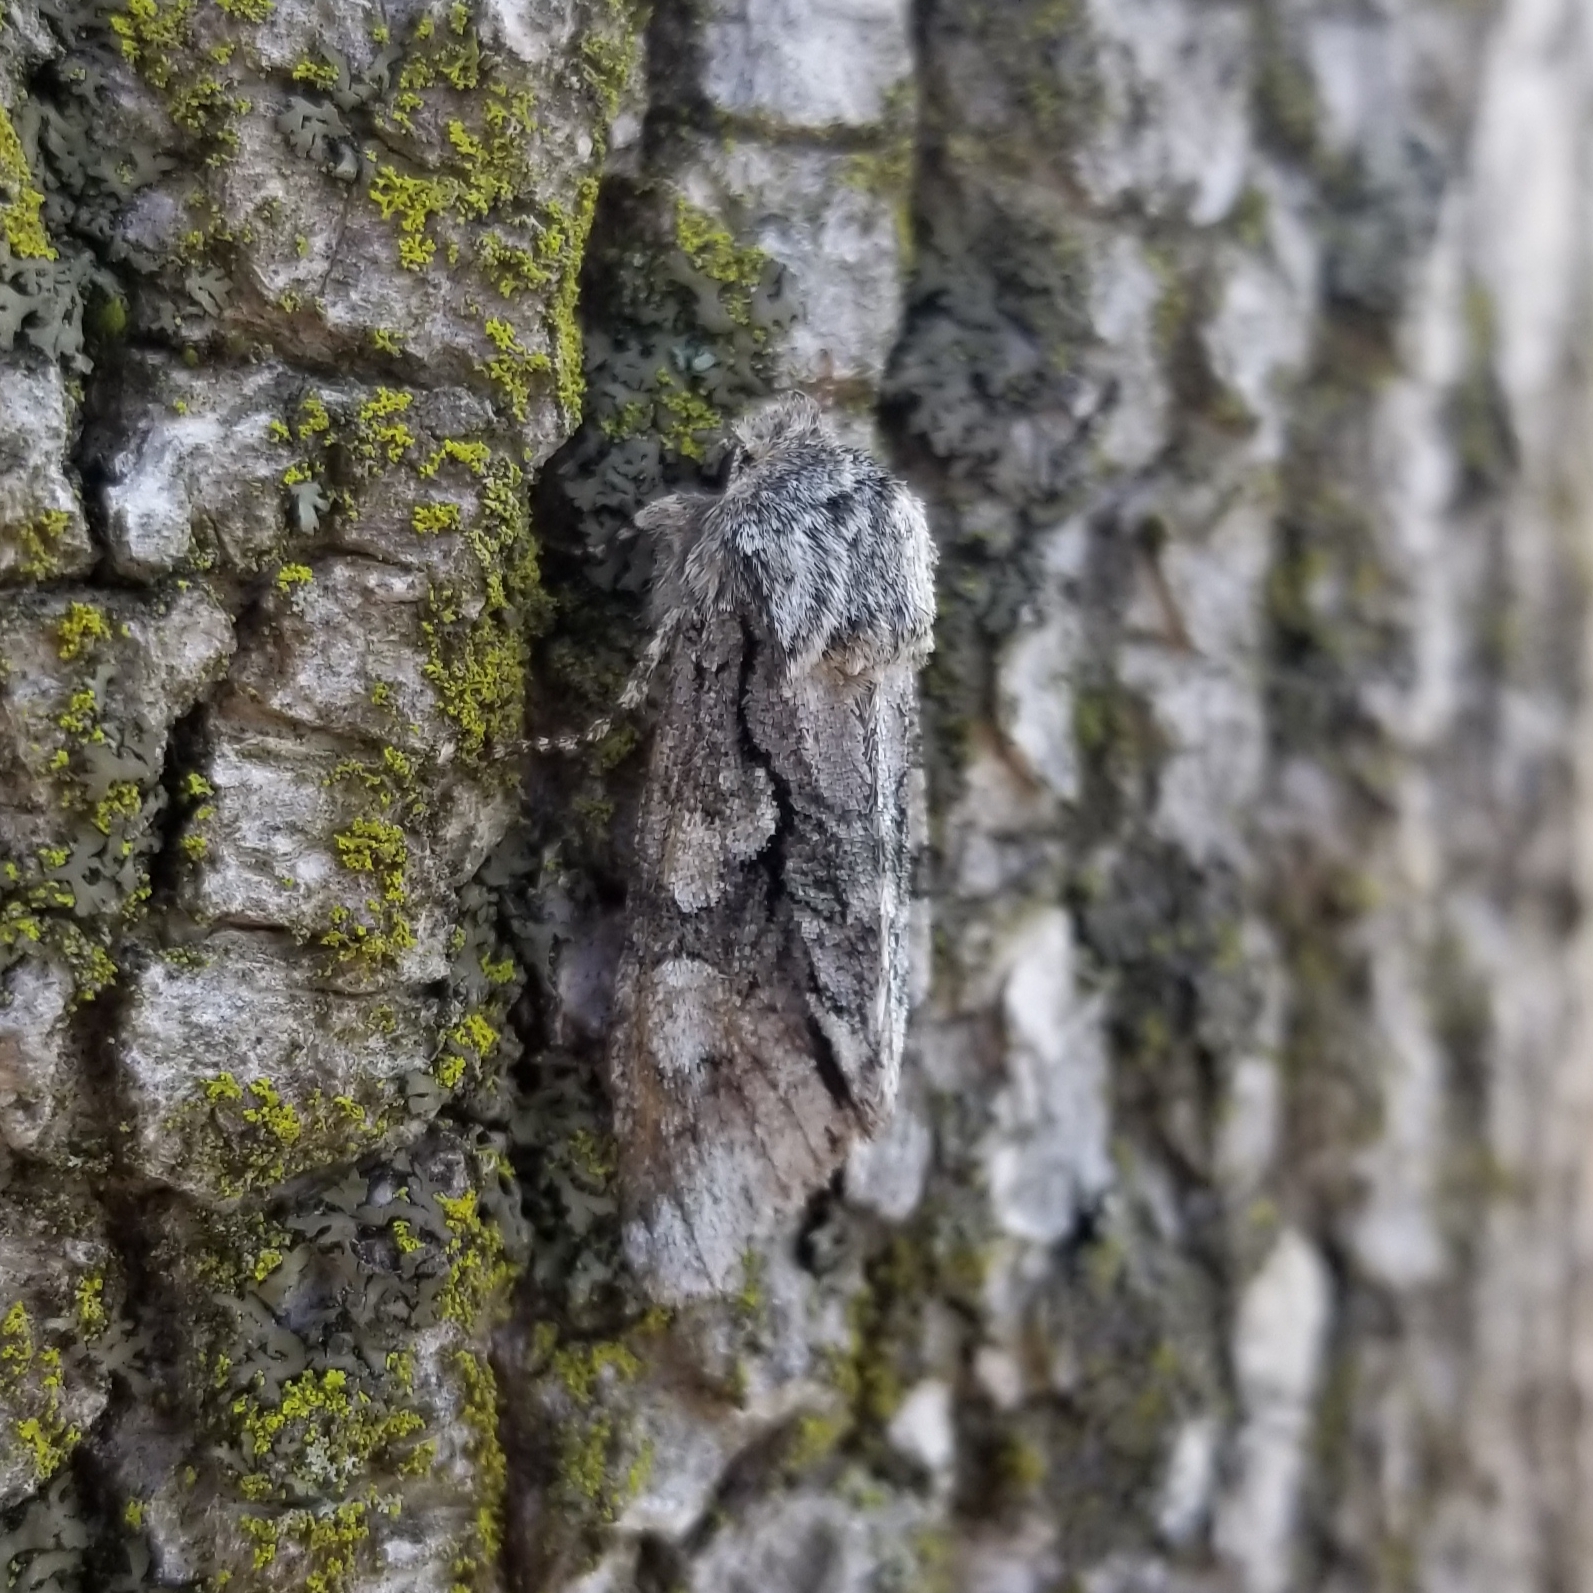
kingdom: Animalia
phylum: Arthropoda
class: Insecta
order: Lepidoptera
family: Noctuidae
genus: Psaphida
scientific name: Psaphida resumens
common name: Figure-eight sallow
